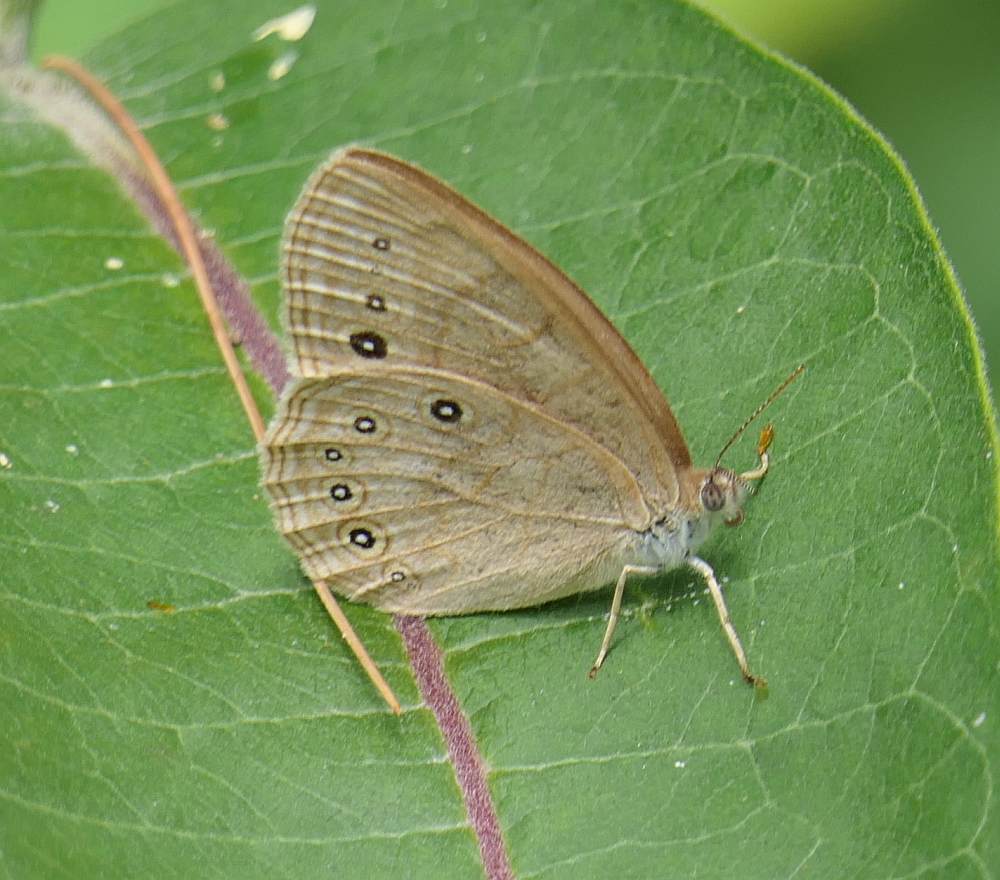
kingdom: Animalia
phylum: Arthropoda
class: Insecta
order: Lepidoptera
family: Nymphalidae
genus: Lethe
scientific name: Lethe eurydice
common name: Eyed brown
